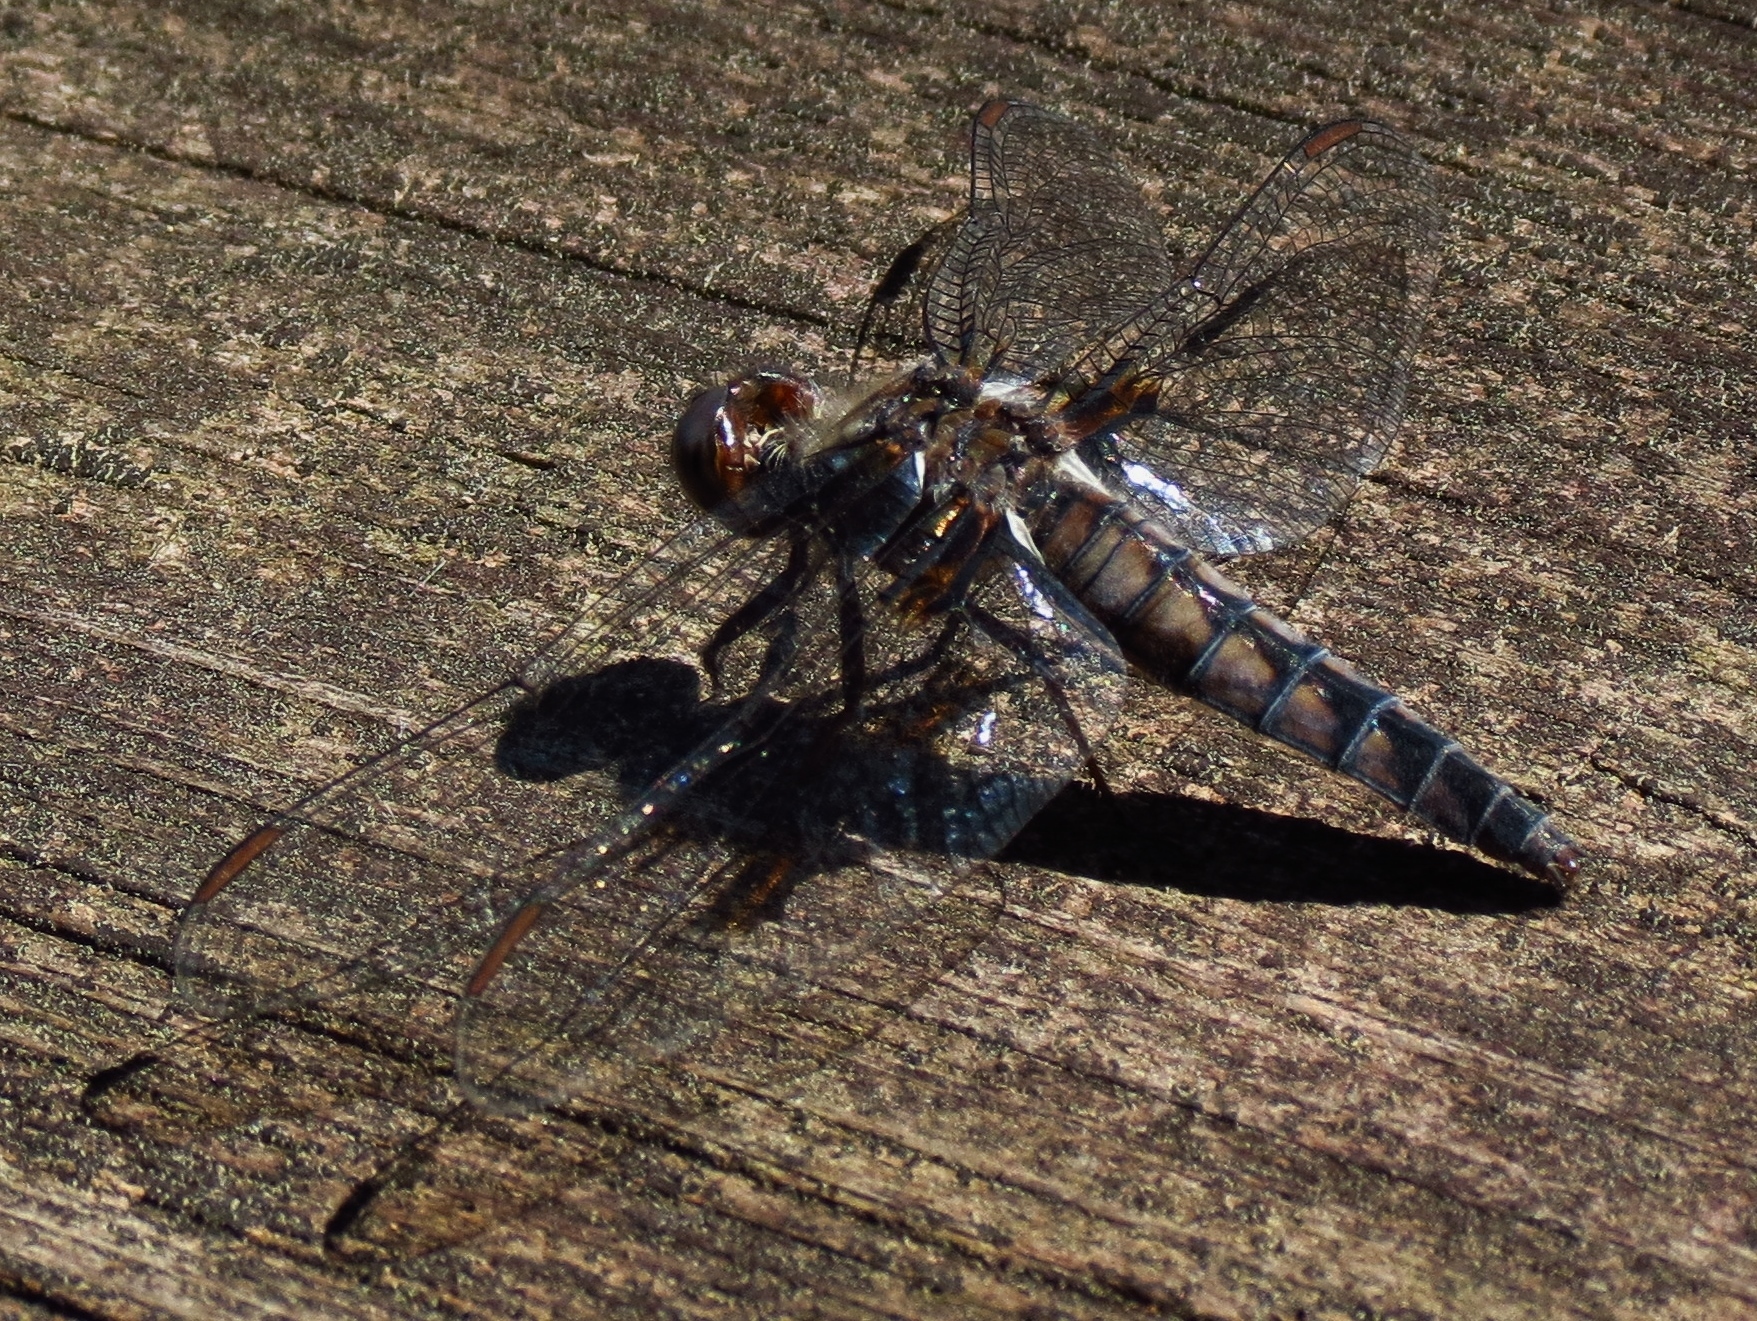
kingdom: Animalia
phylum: Arthropoda
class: Insecta
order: Odonata
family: Libellulidae
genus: Ladona
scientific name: Ladona deplanata
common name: Blue corporal
